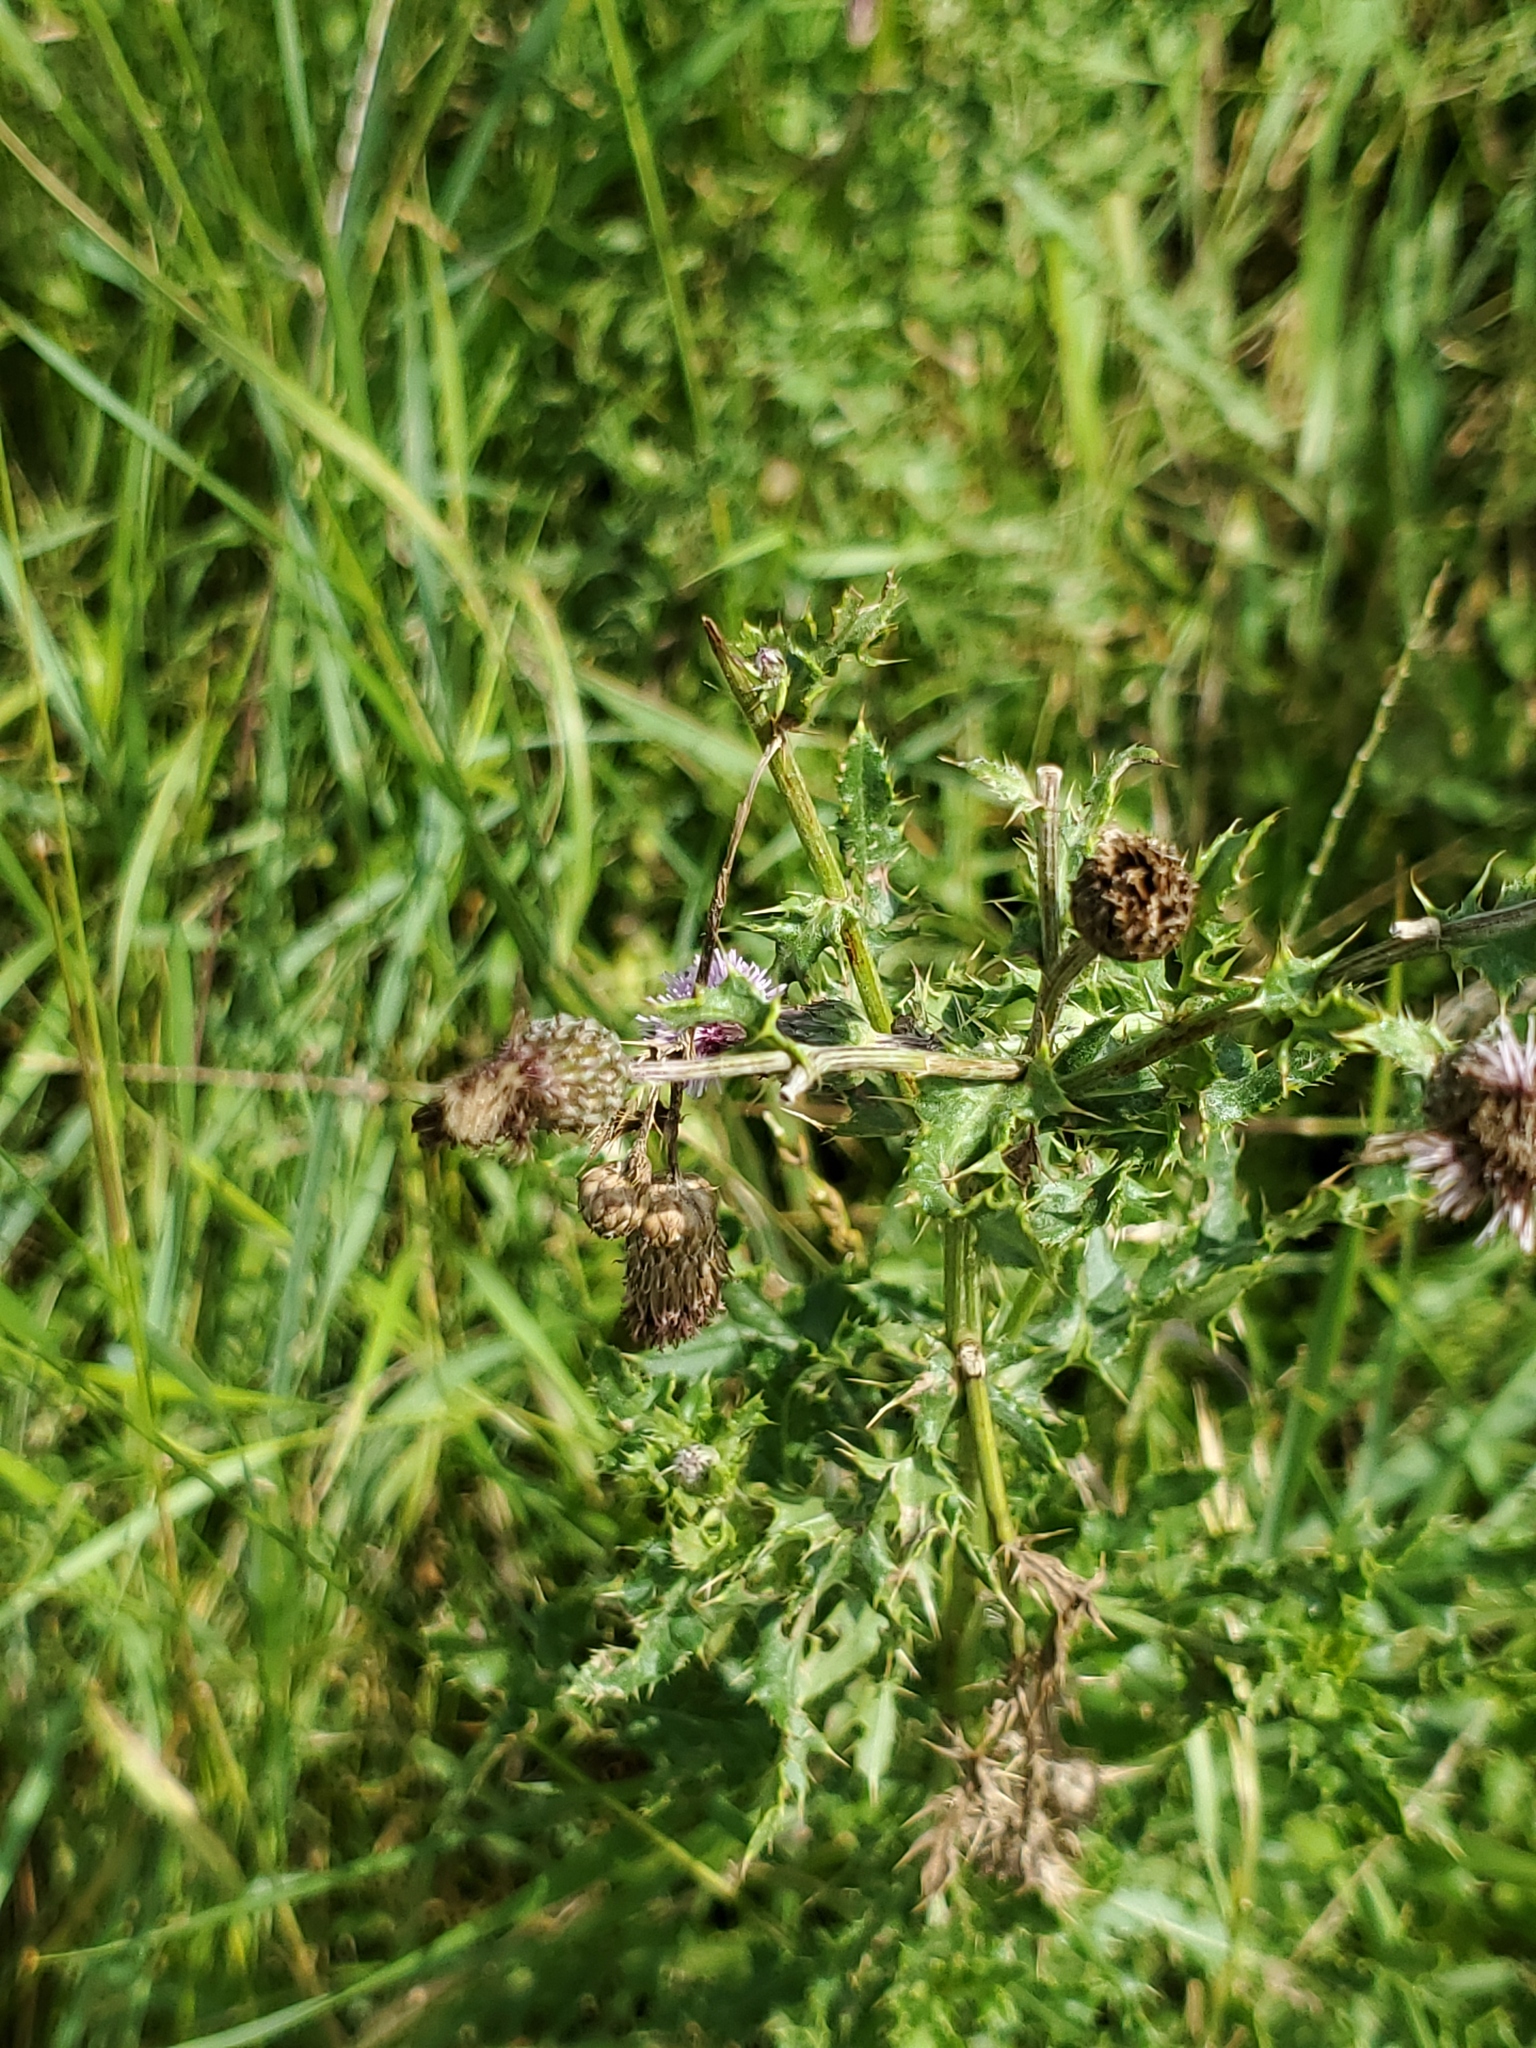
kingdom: Plantae
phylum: Tracheophyta
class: Magnoliopsida
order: Asterales
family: Asteraceae
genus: Cirsium
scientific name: Cirsium arvense
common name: Creeping thistle
